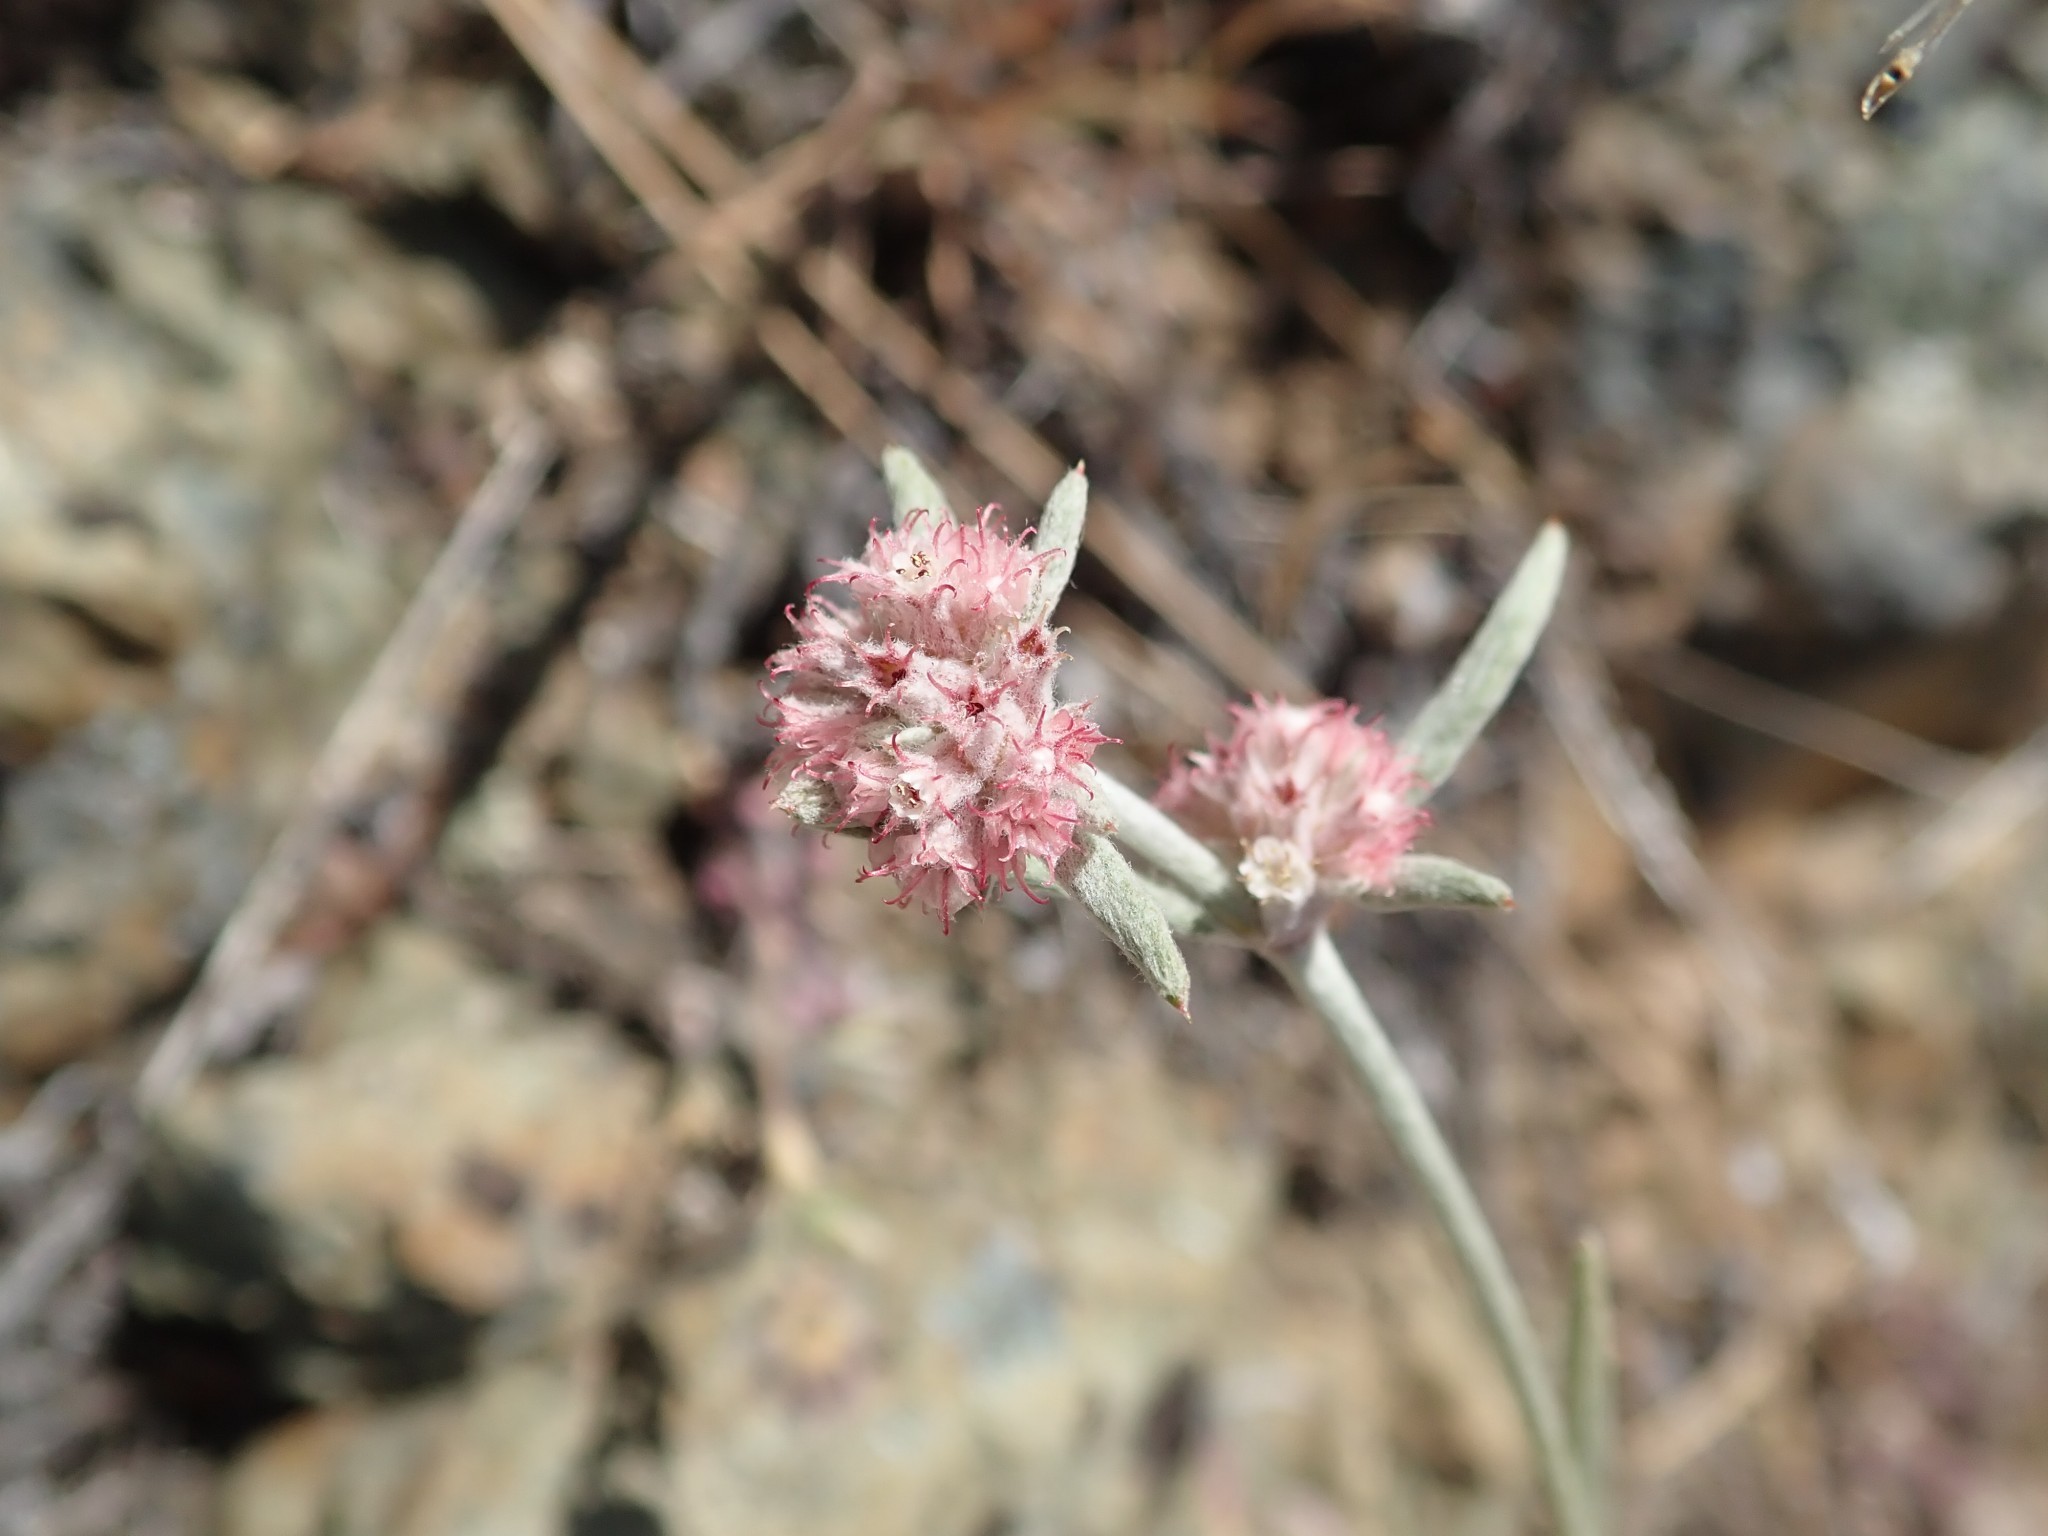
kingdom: Plantae
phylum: Tracheophyta
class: Magnoliopsida
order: Caryophyllales
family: Polygonaceae
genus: Chorizanthe
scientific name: Chorizanthe membranacea
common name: Pink spineflower
